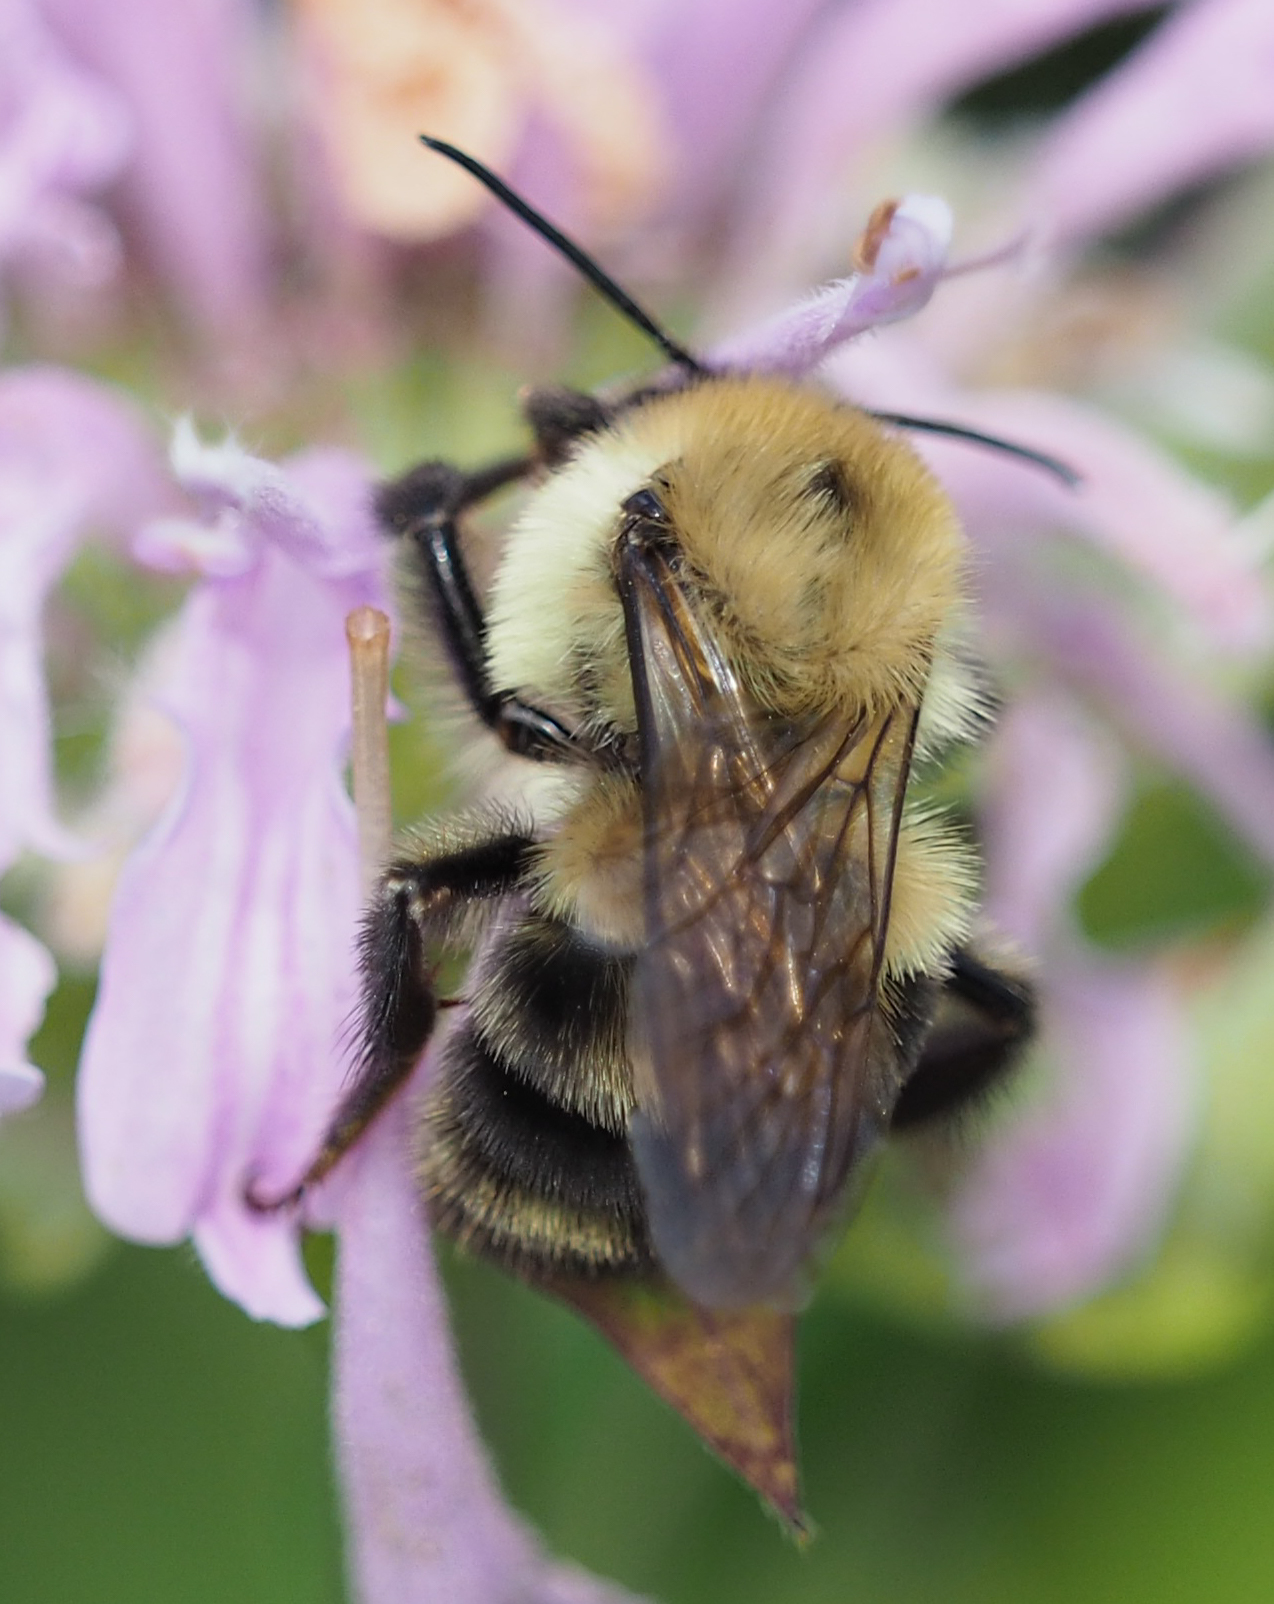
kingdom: Animalia
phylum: Arthropoda
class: Insecta
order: Hymenoptera
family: Apidae
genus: Bombus
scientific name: Bombus bimaculatus
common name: Two-spotted bumble bee
